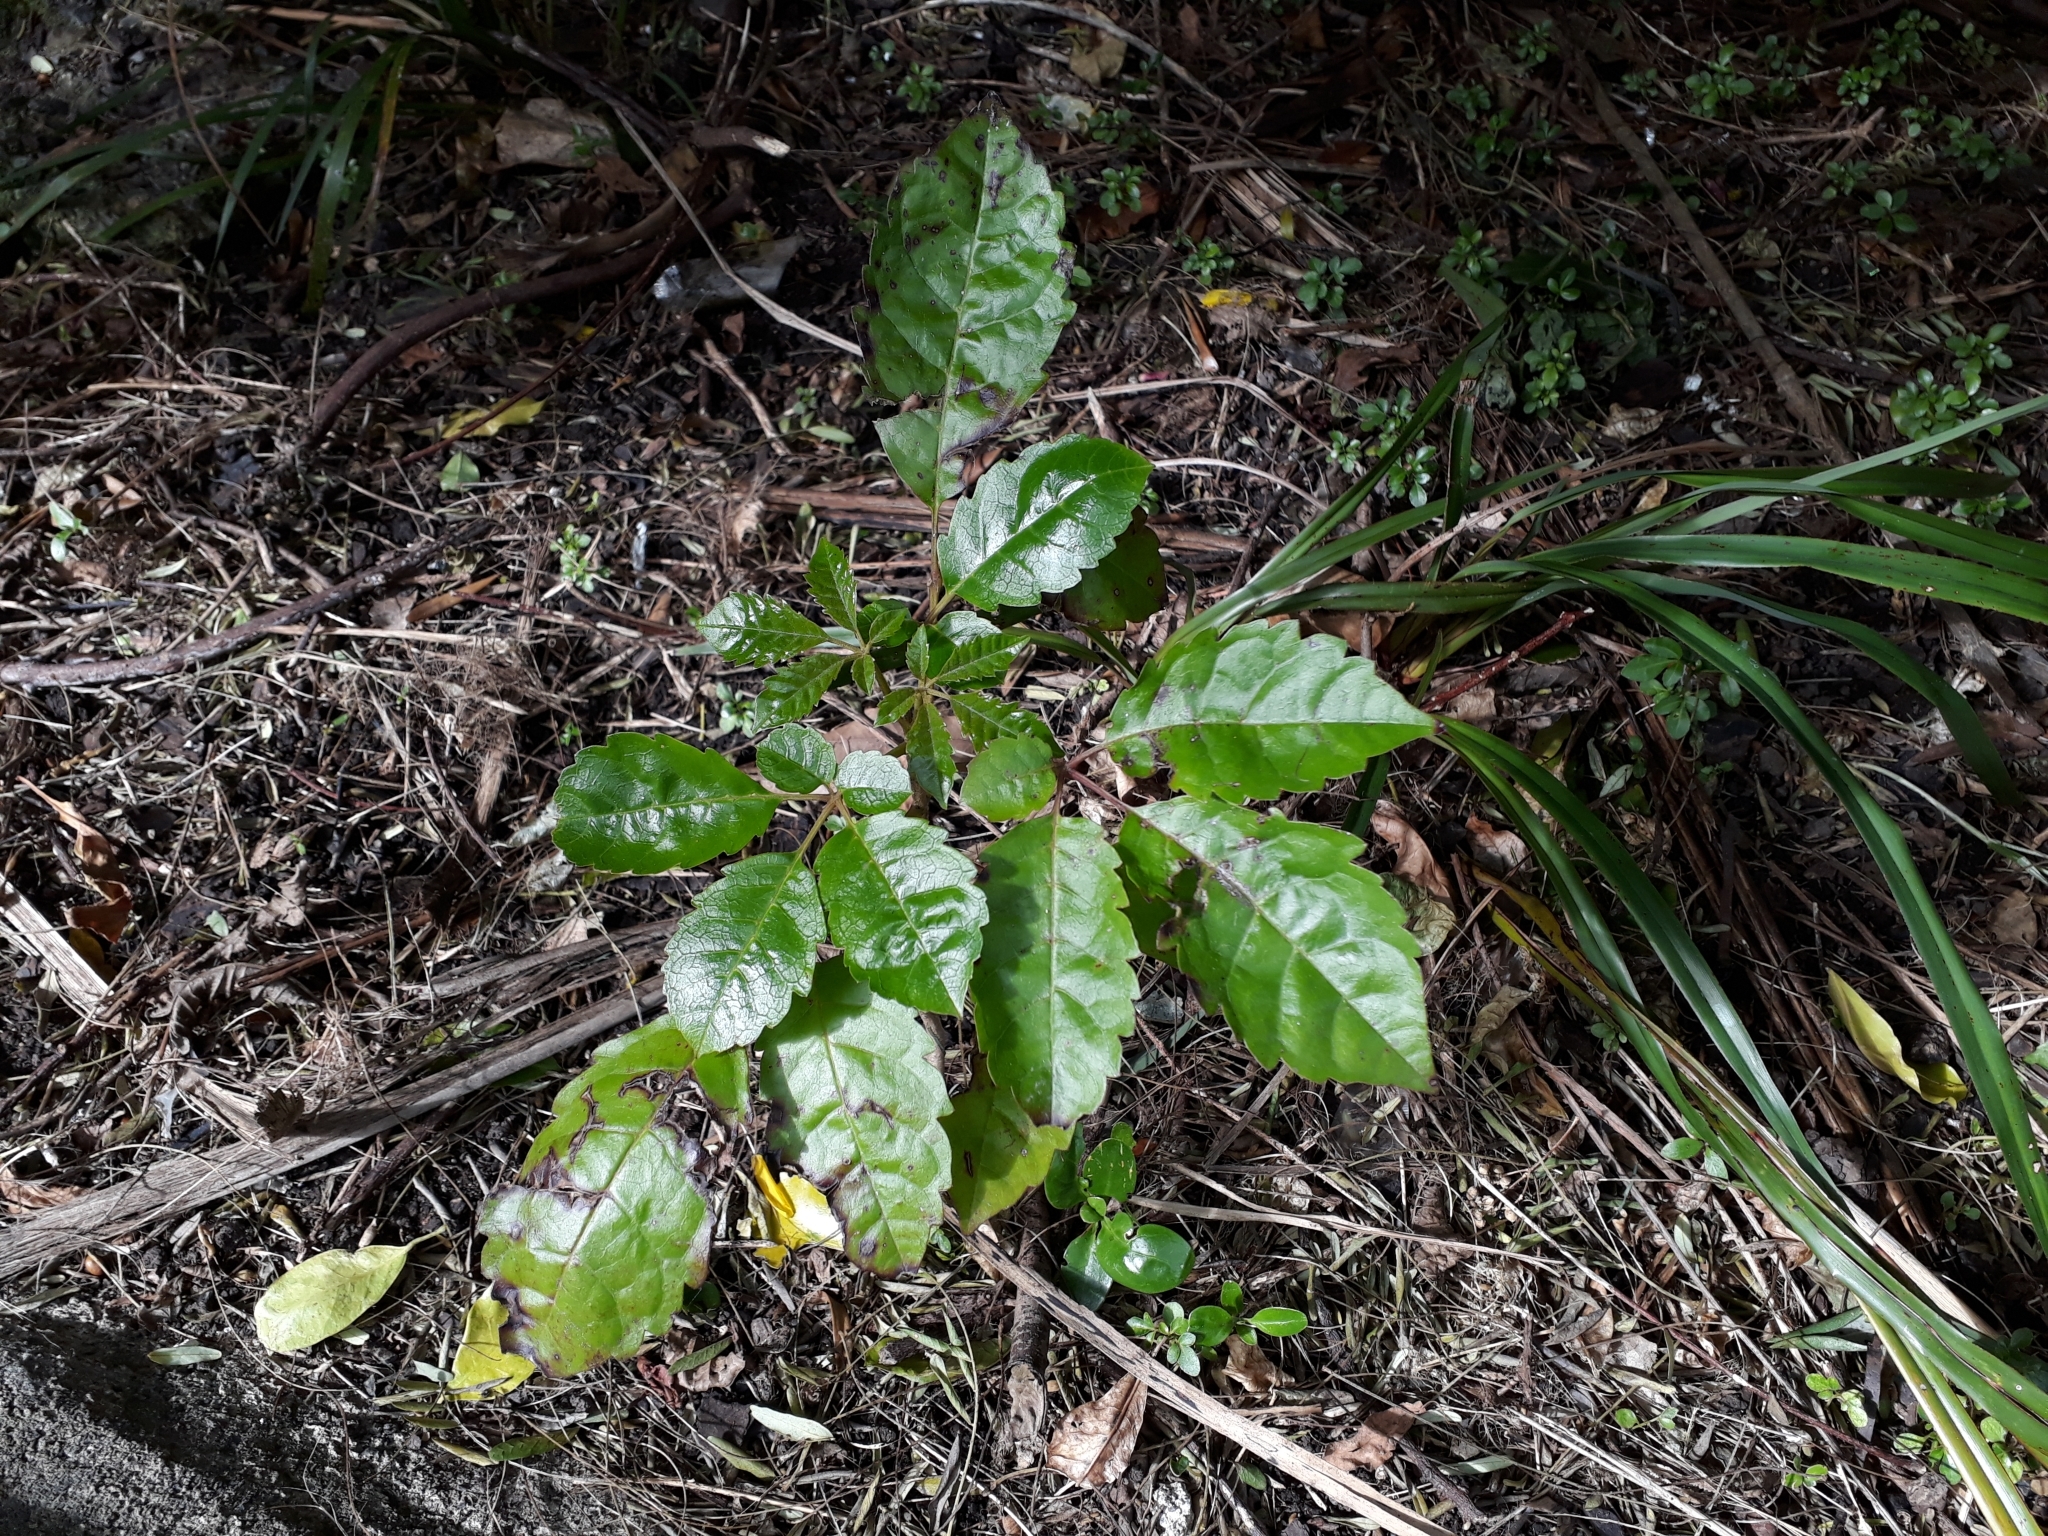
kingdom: Plantae
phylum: Tracheophyta
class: Magnoliopsida
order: Lamiales
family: Lamiaceae
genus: Vitex
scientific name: Vitex lucens
